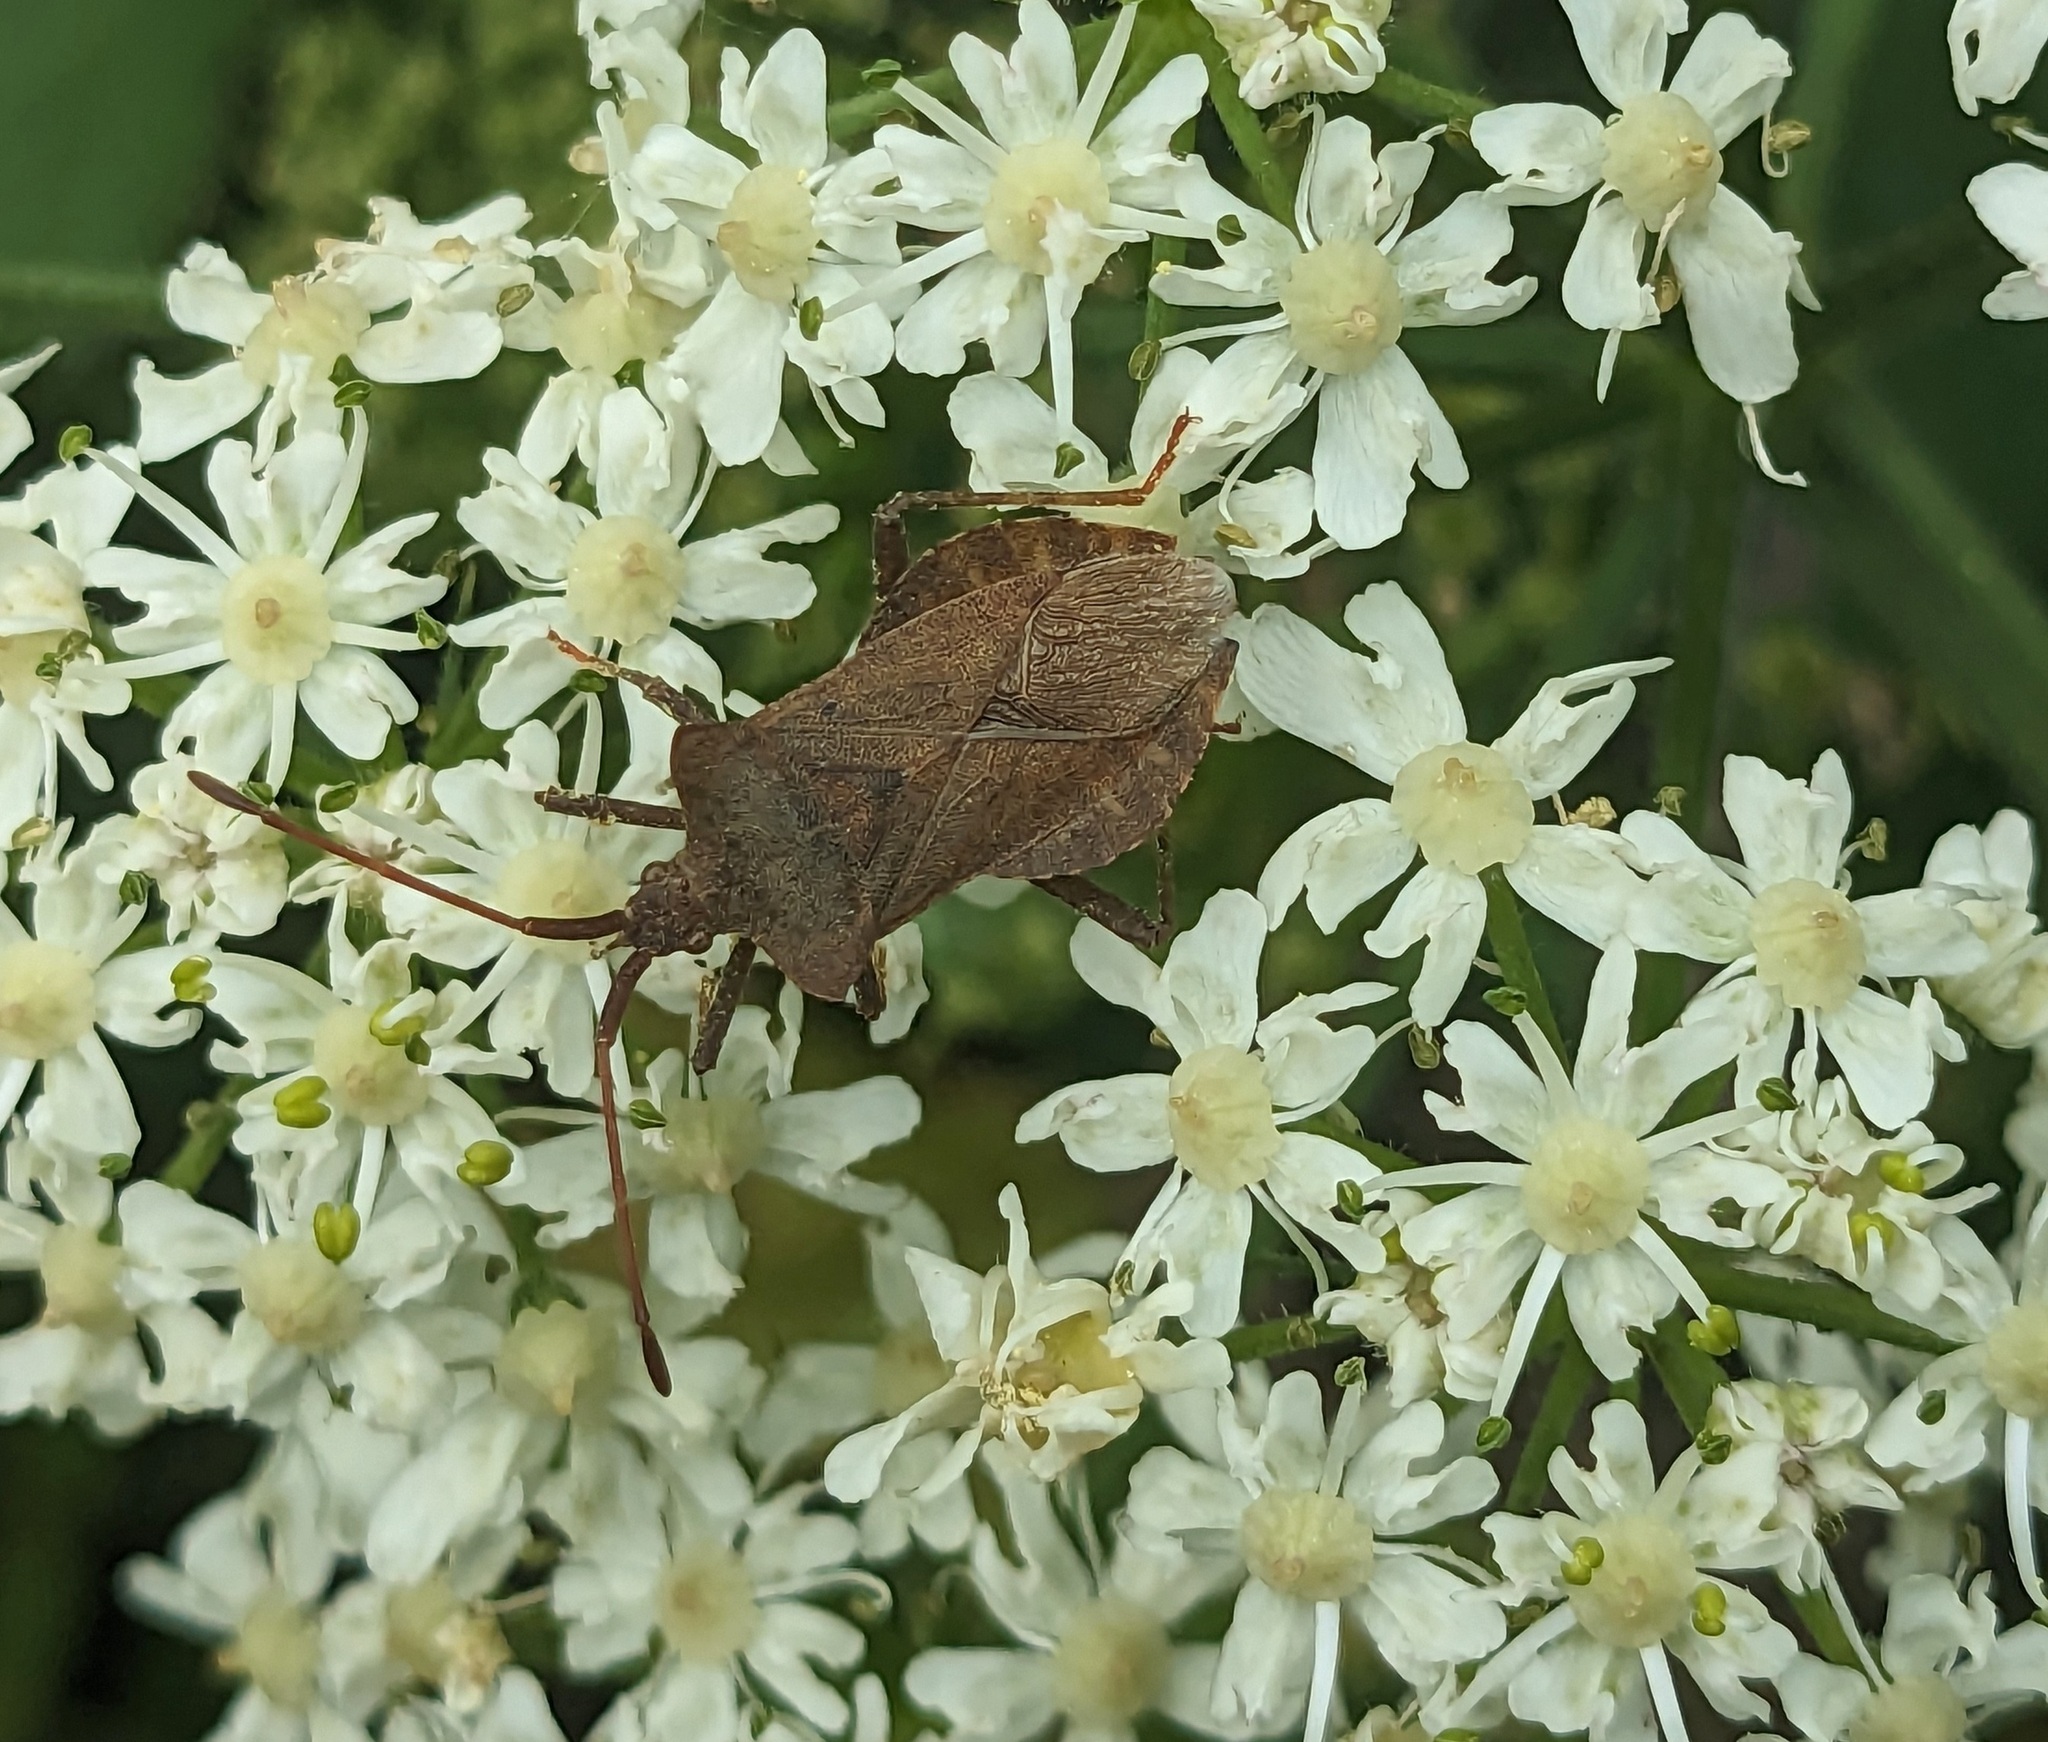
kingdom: Animalia
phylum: Arthropoda
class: Insecta
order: Hemiptera
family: Coreidae
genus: Coreus
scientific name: Coreus marginatus
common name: Dock bug
